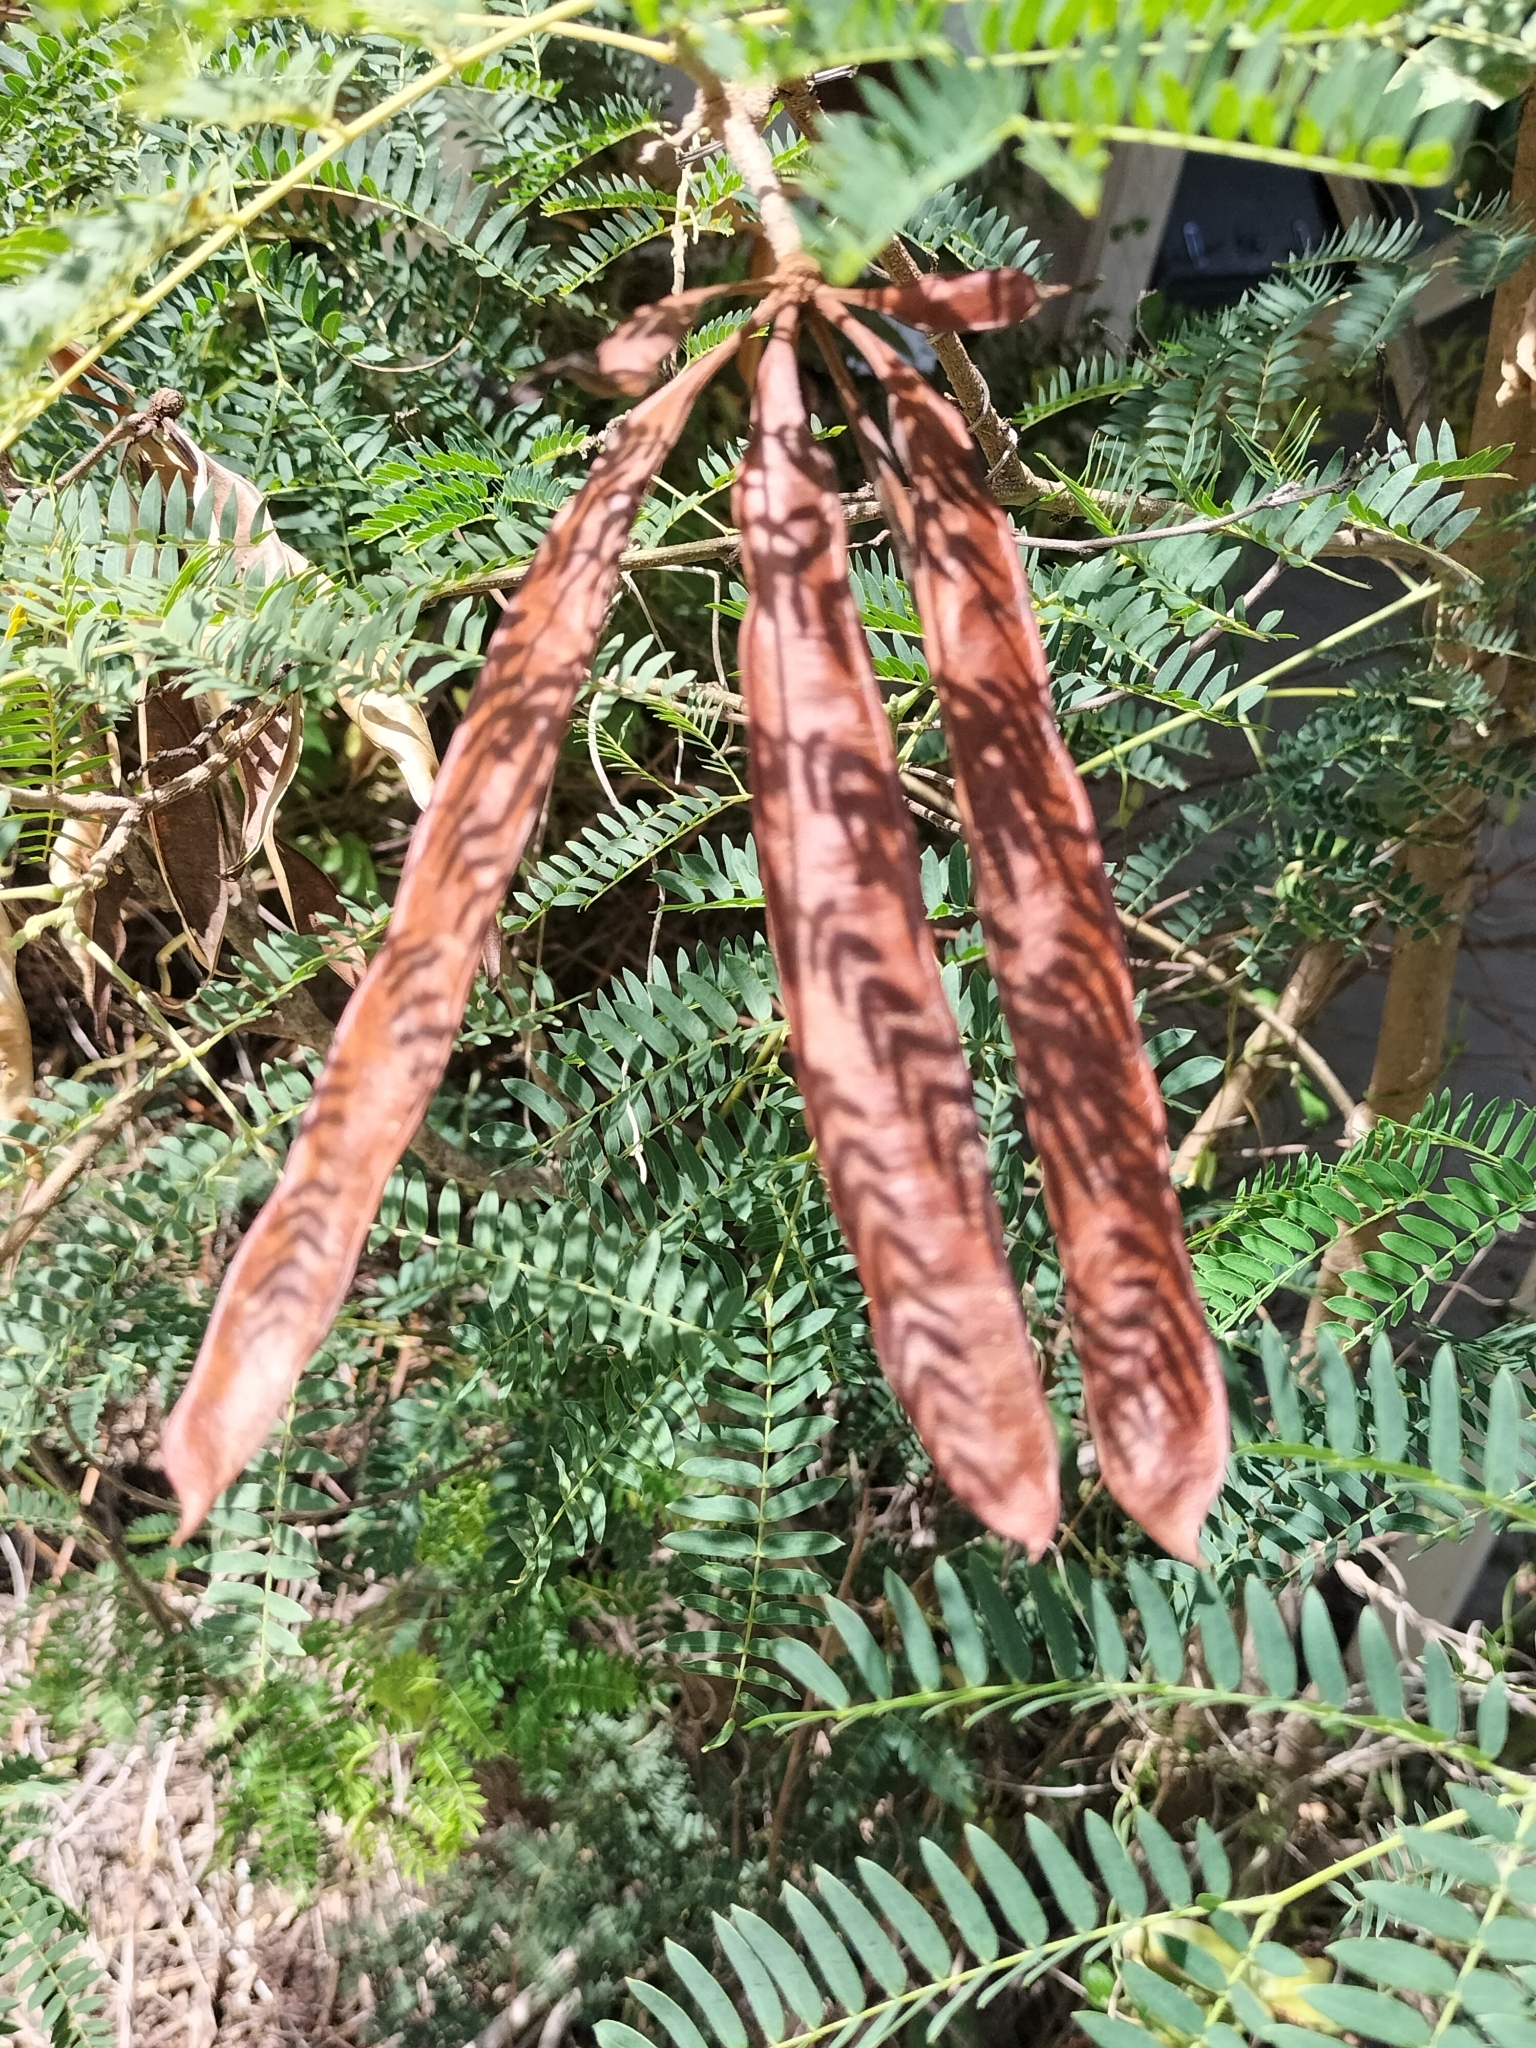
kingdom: Plantae
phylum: Tracheophyta
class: Magnoliopsida
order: Fabales
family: Fabaceae
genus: Leucaena
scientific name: Leucaena leucocephala
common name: White leadtree
